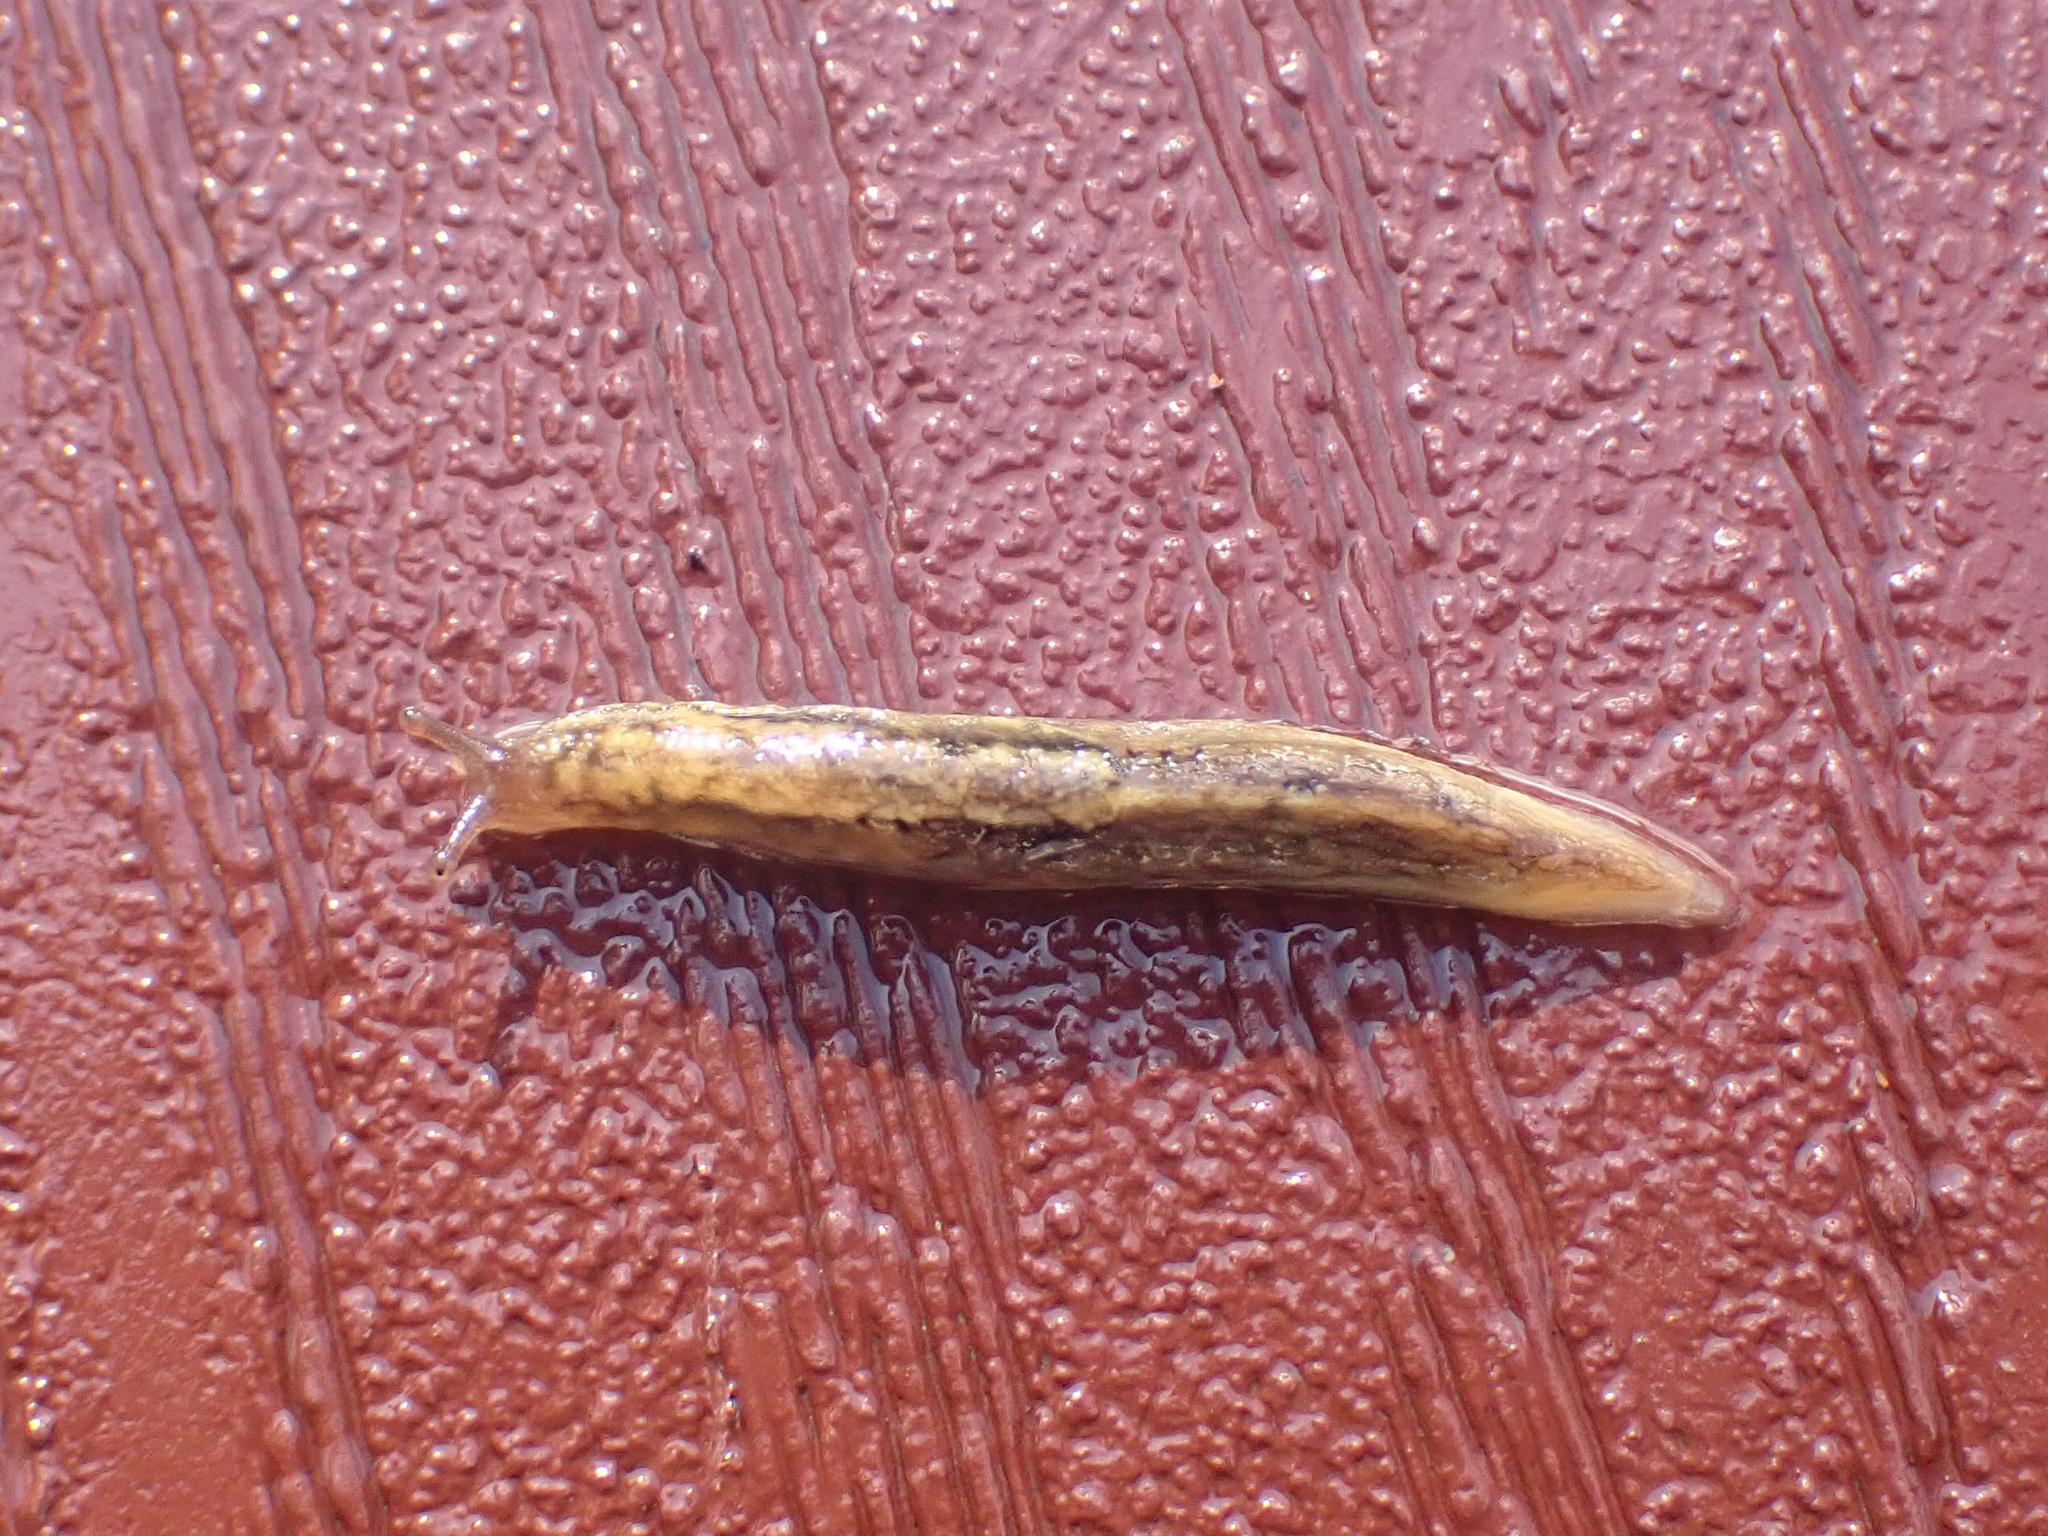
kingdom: Animalia
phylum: Mollusca
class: Gastropoda
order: Stylommatophora
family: Ariolimacidae
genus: Prophysaon
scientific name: Prophysaon andersonii
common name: Reticulate taildropper
